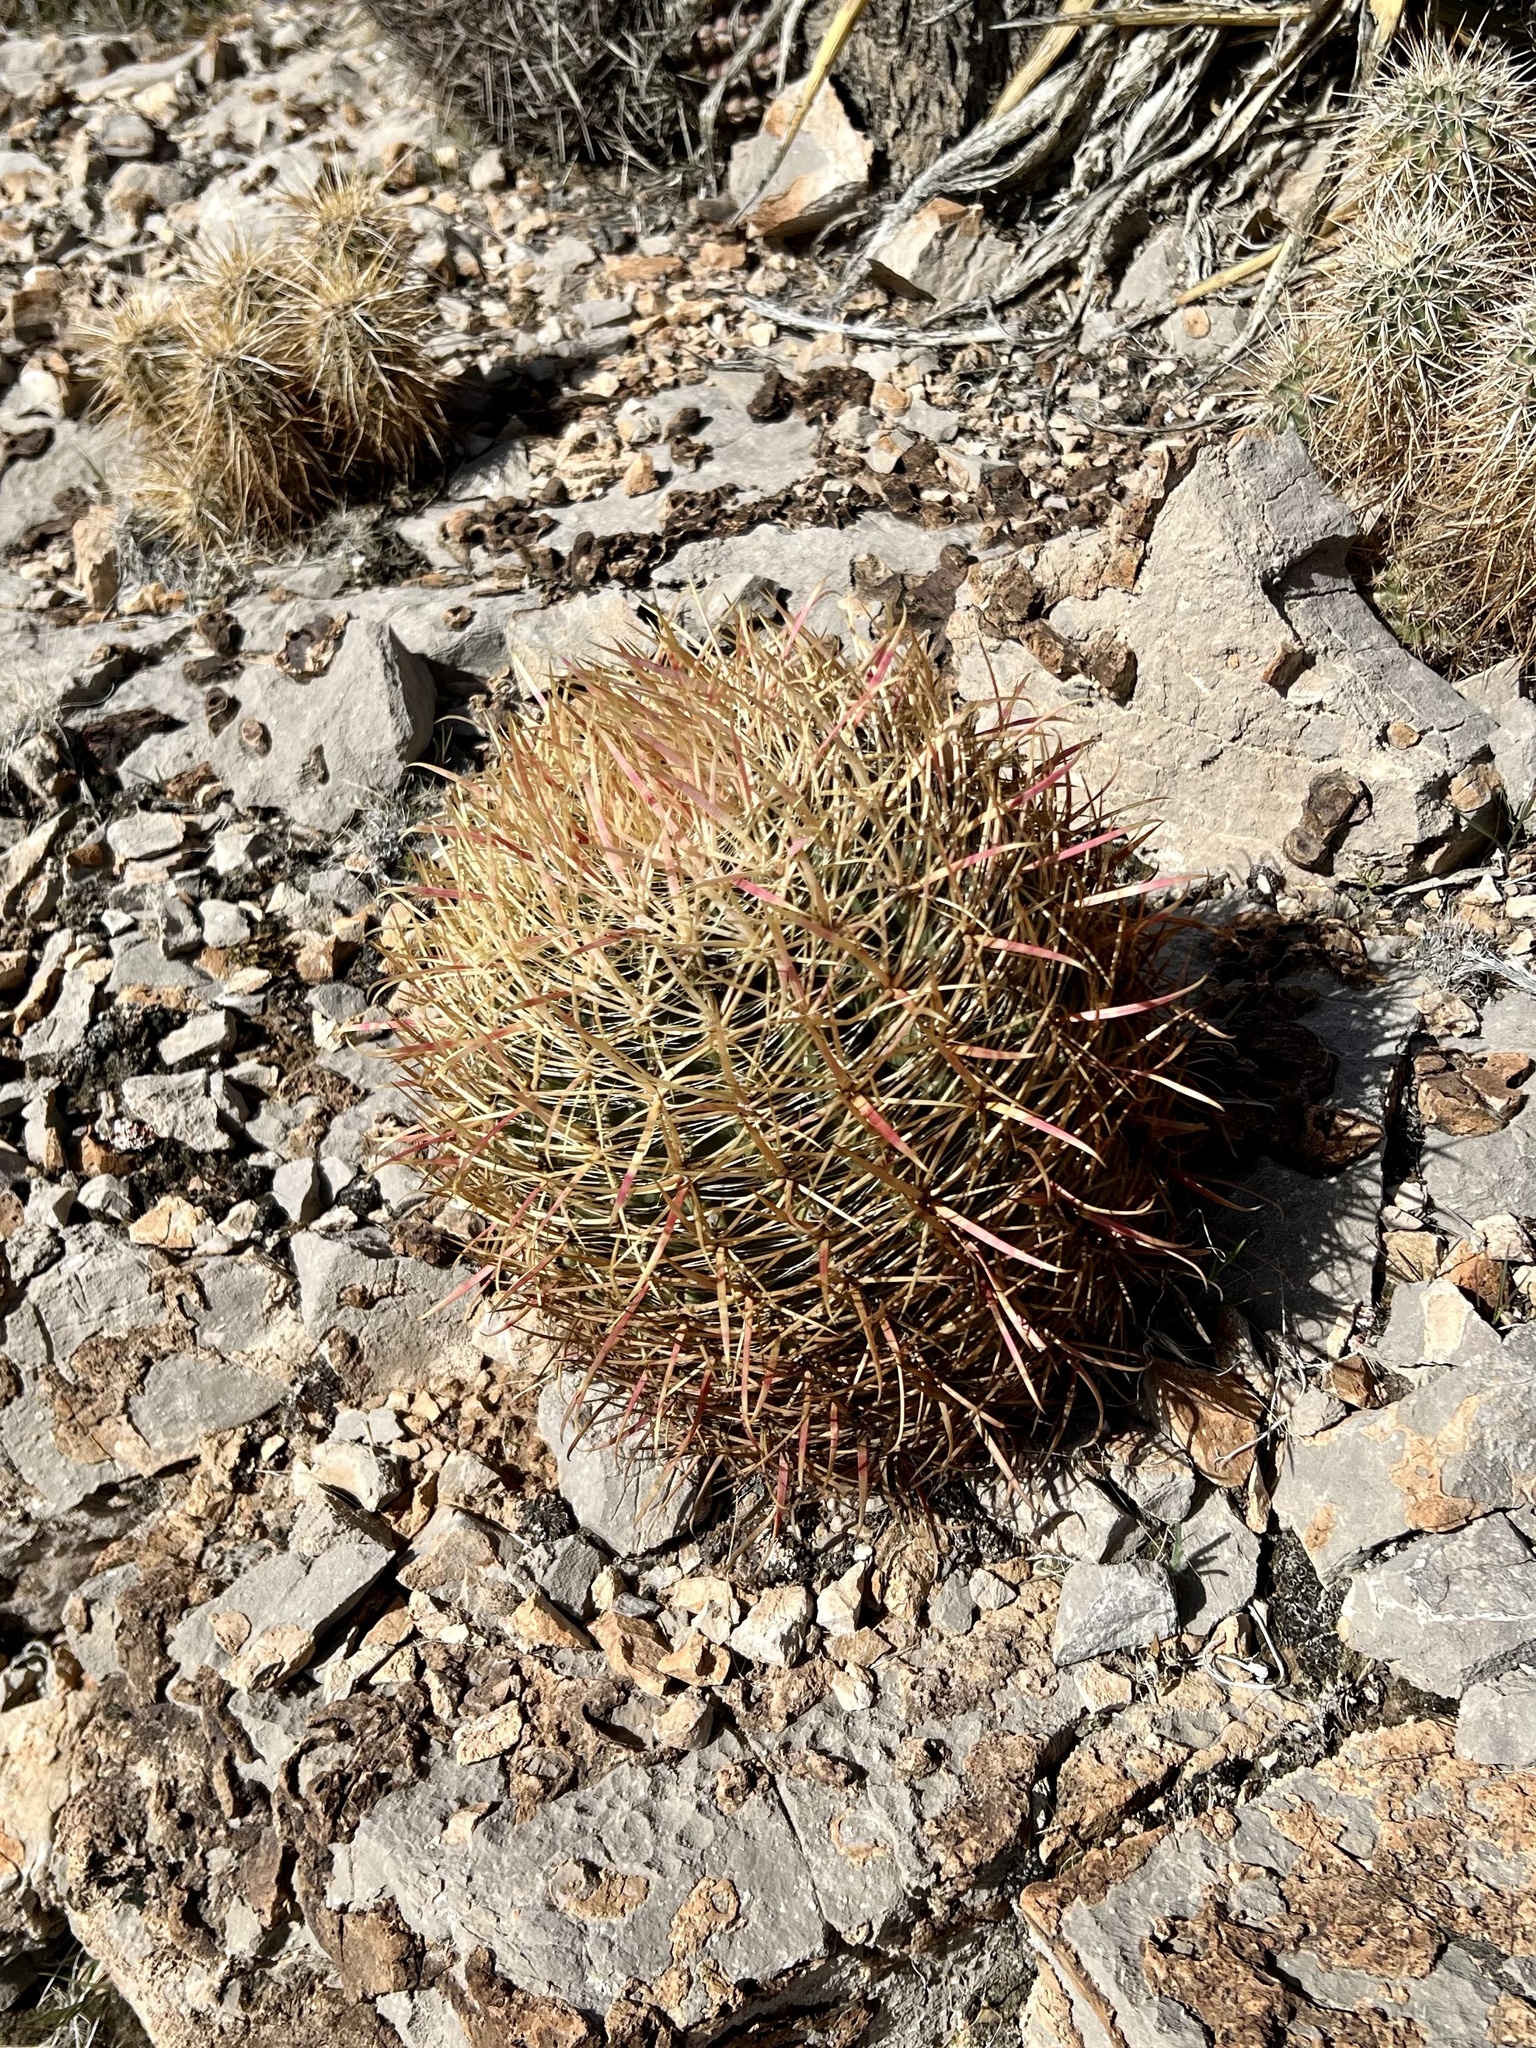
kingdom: Plantae
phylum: Tracheophyta
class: Magnoliopsida
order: Caryophyllales
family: Cactaceae
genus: Ferocactus
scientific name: Ferocactus cylindraceus
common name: California barrel cactus
